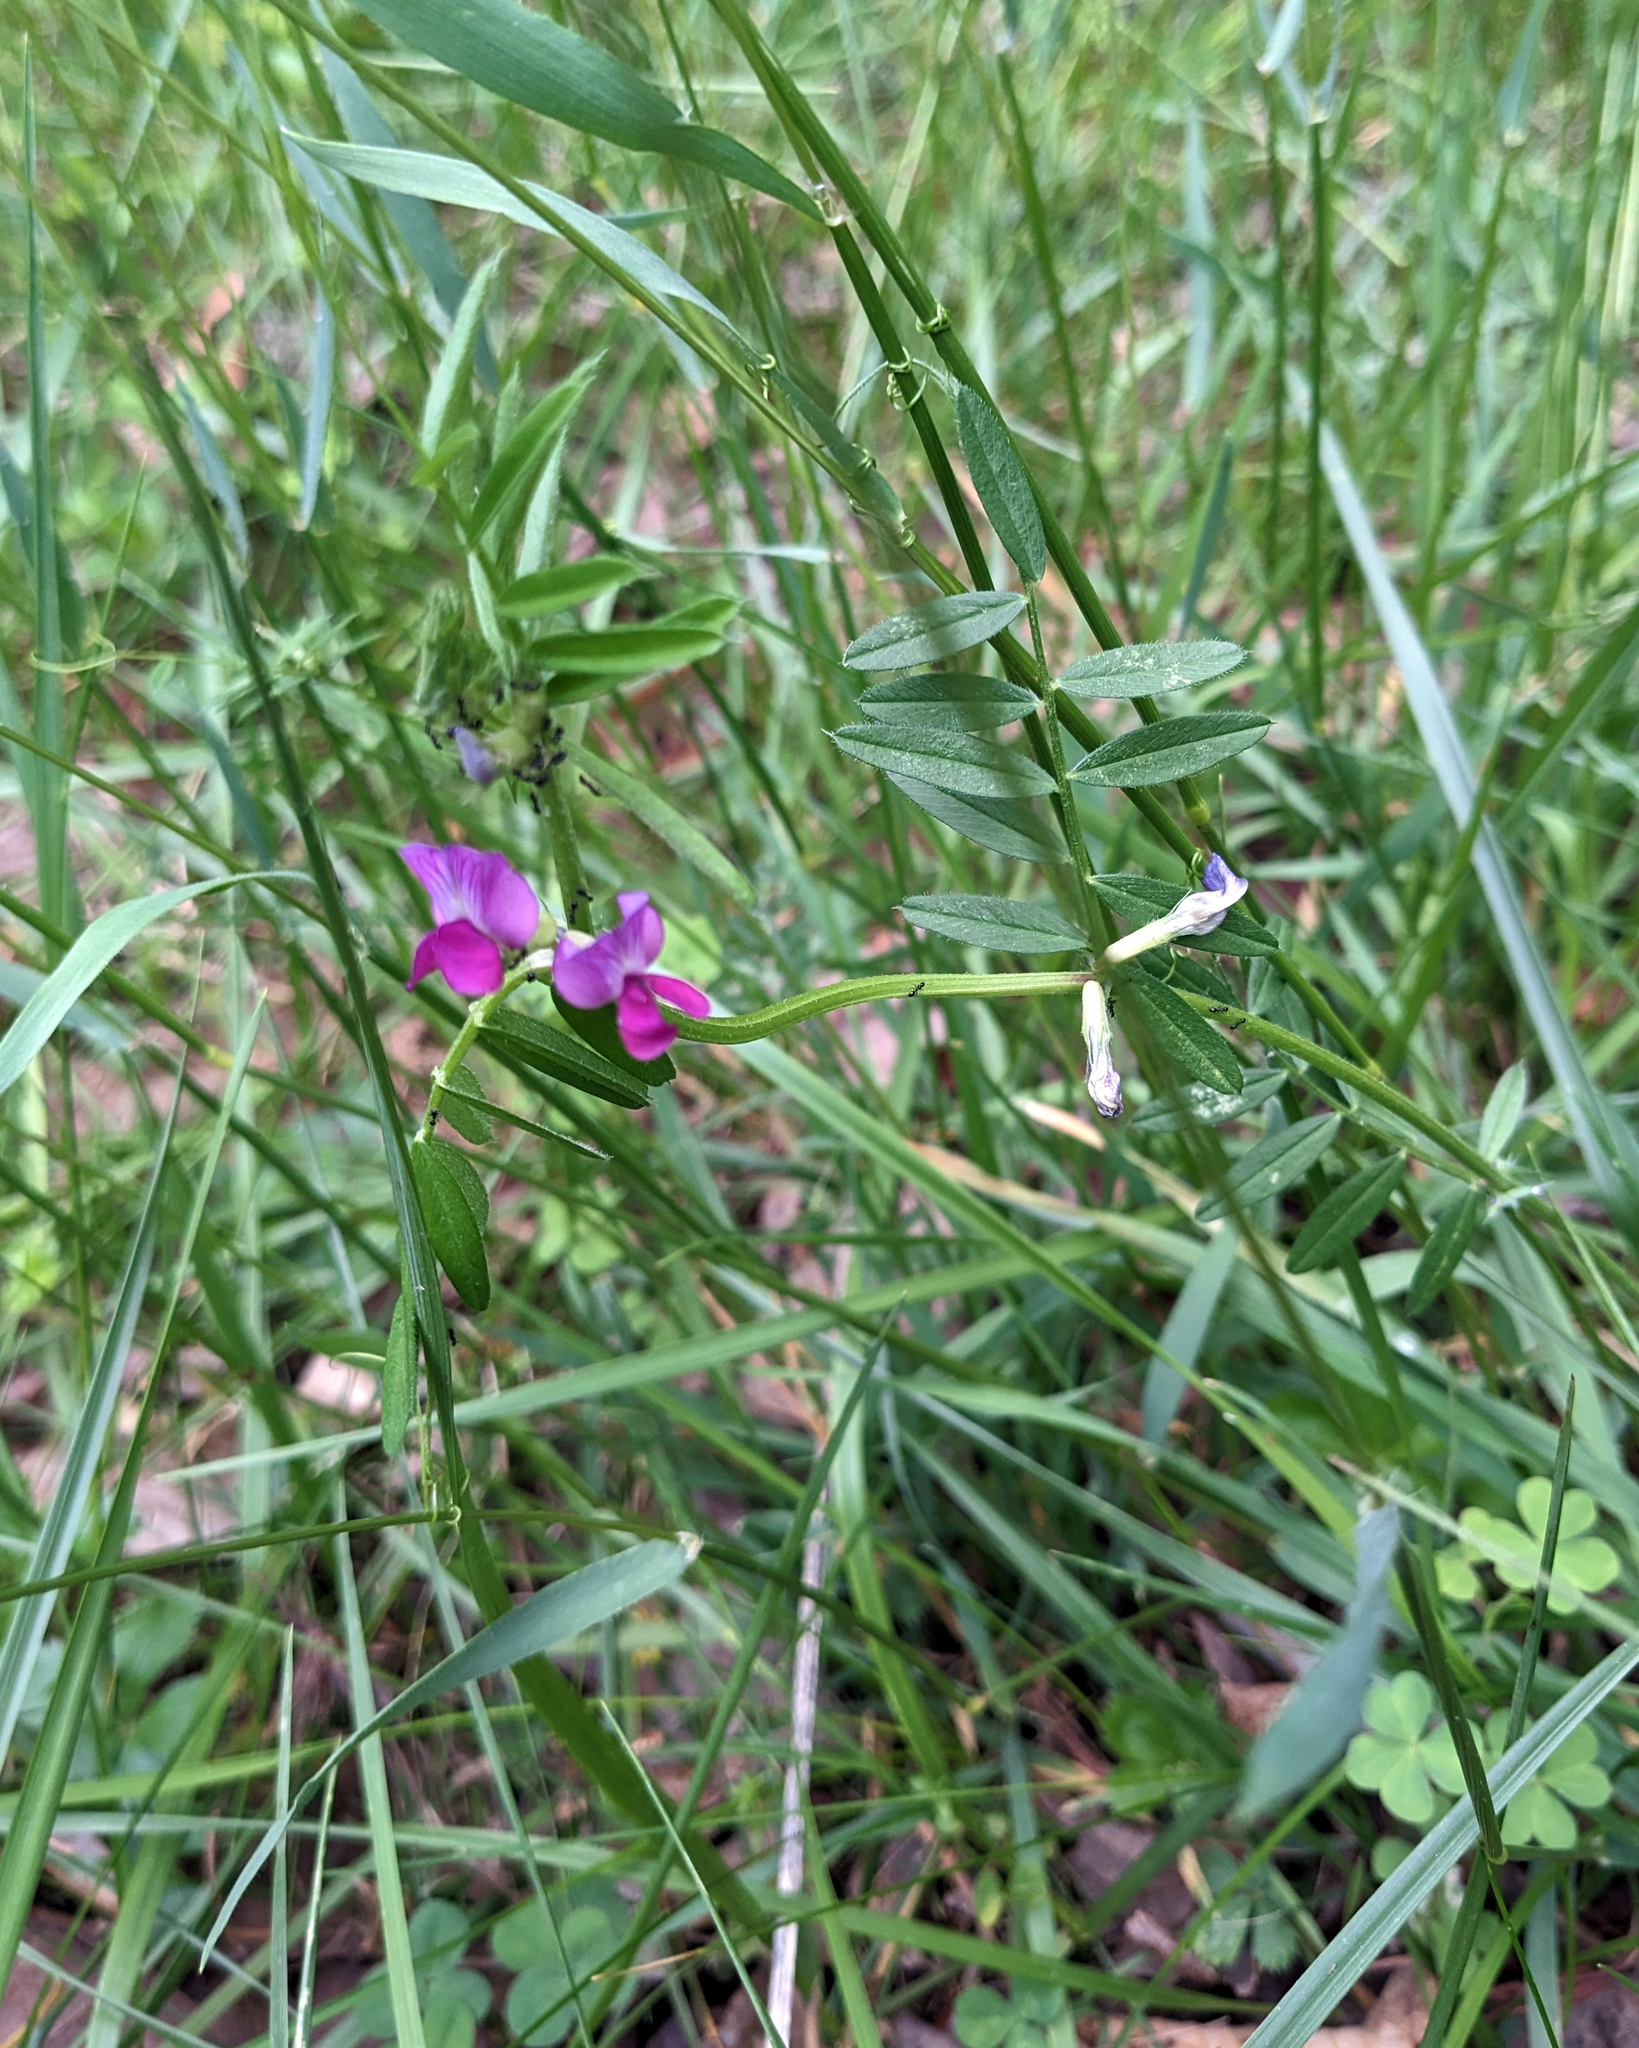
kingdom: Plantae
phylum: Tracheophyta
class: Magnoliopsida
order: Fabales
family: Fabaceae
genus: Vicia
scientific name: Vicia sativa
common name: Garden vetch
